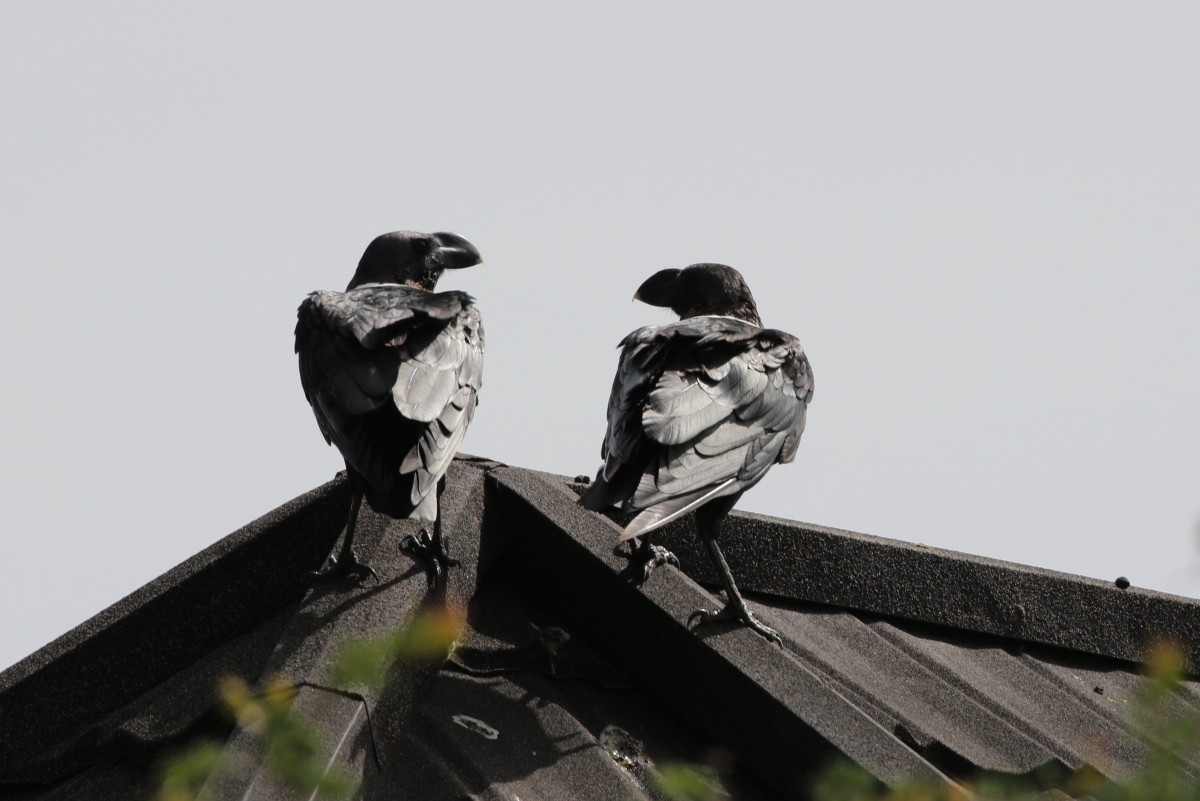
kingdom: Animalia
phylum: Chordata
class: Aves
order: Passeriformes
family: Corvidae
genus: Corvus
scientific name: Corvus albicollis
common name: White-necked raven
